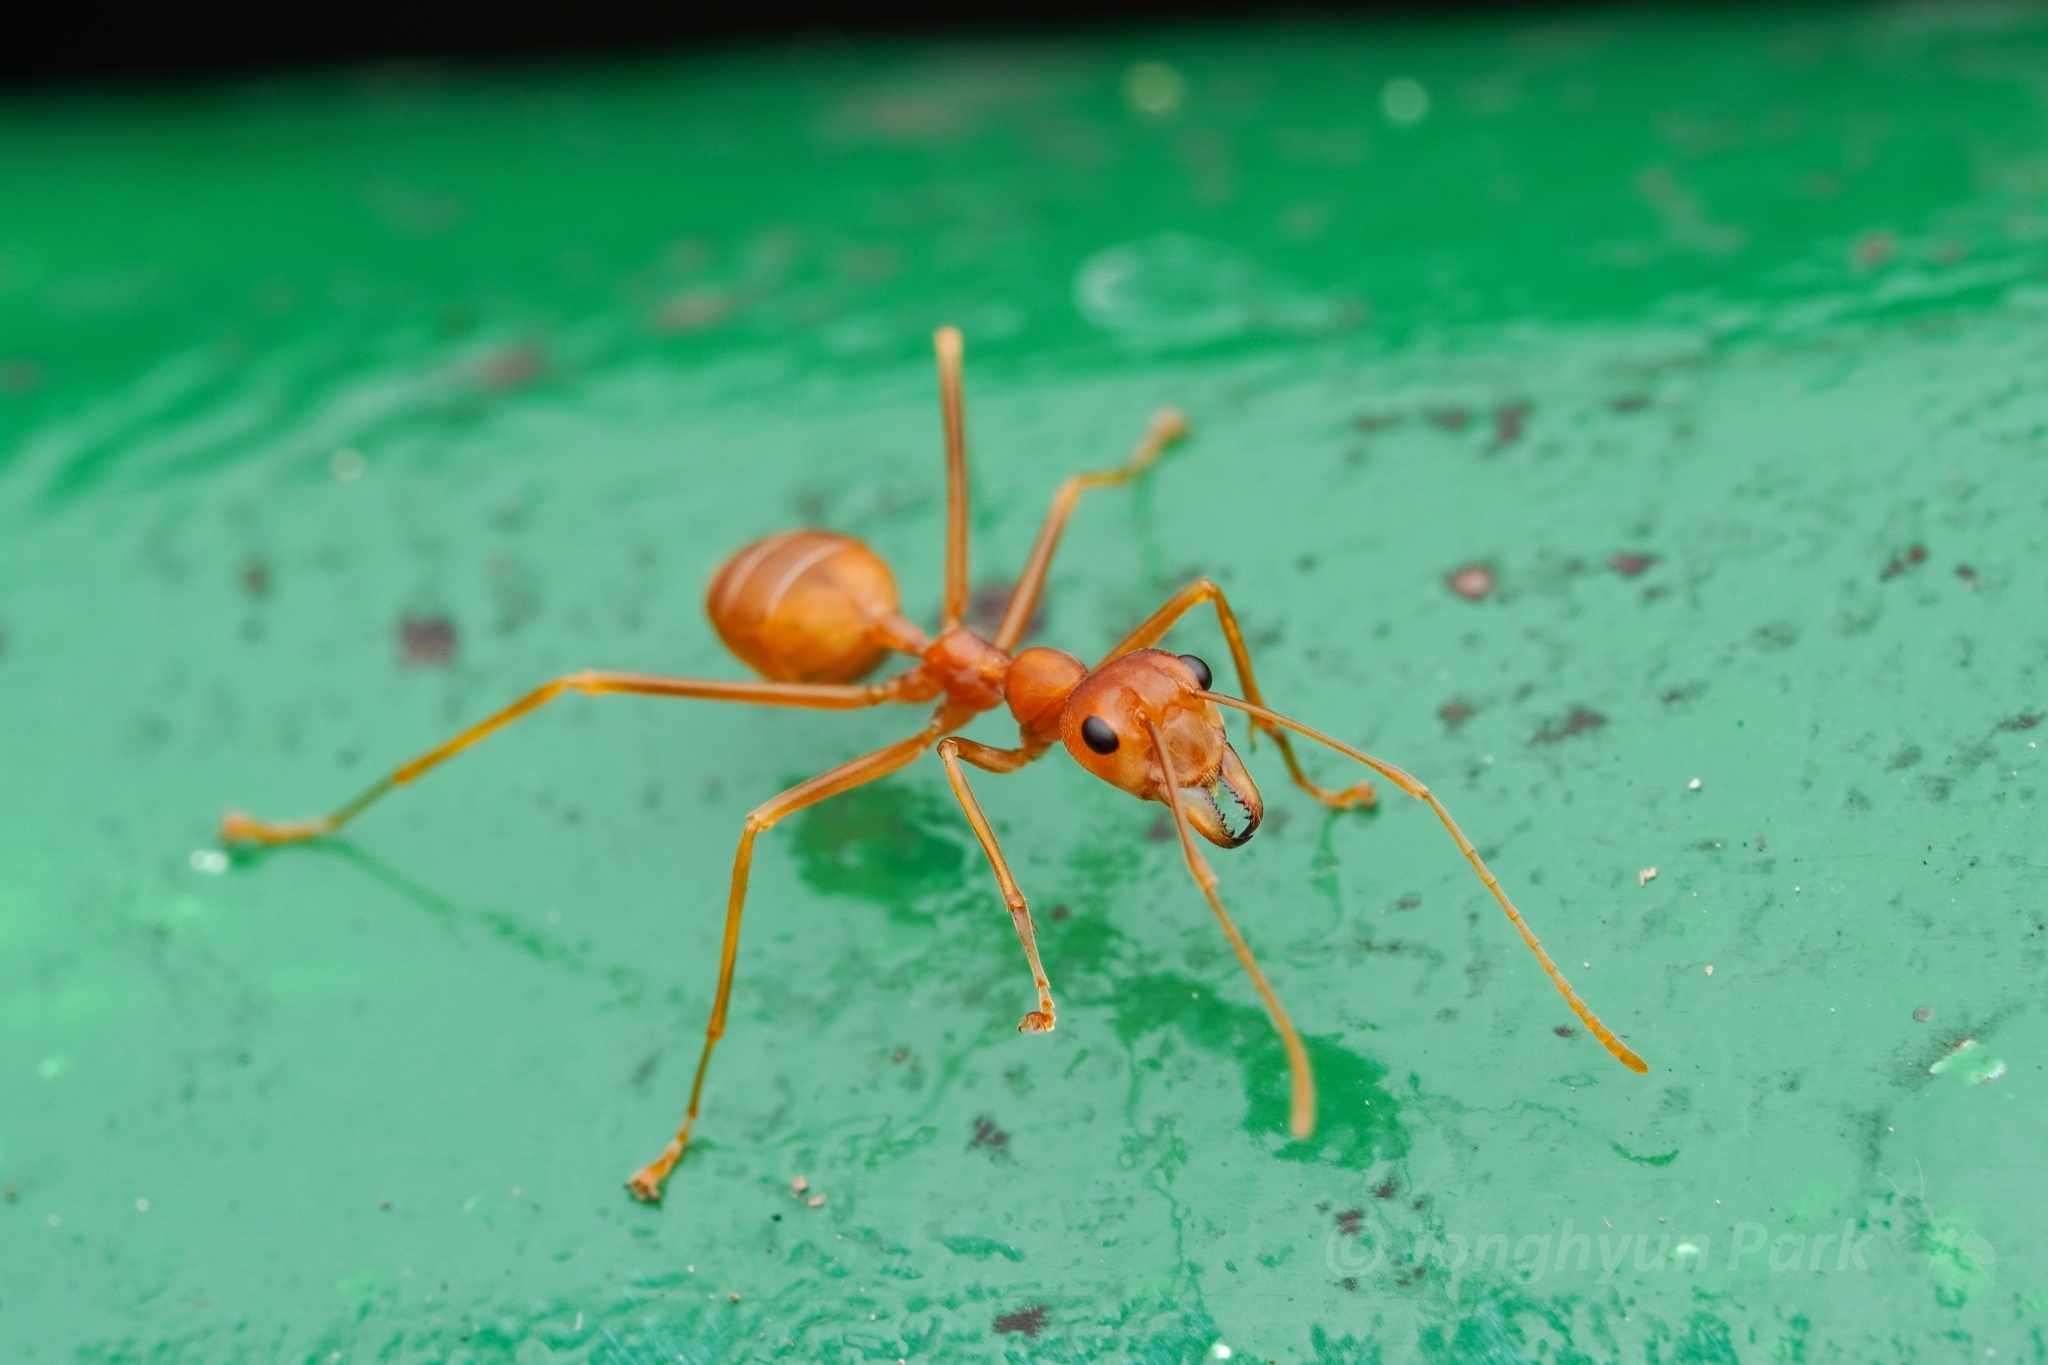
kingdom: Animalia
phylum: Arthropoda
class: Insecta
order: Hymenoptera
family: Formicidae
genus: Oecophylla
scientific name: Oecophylla smaragdina
